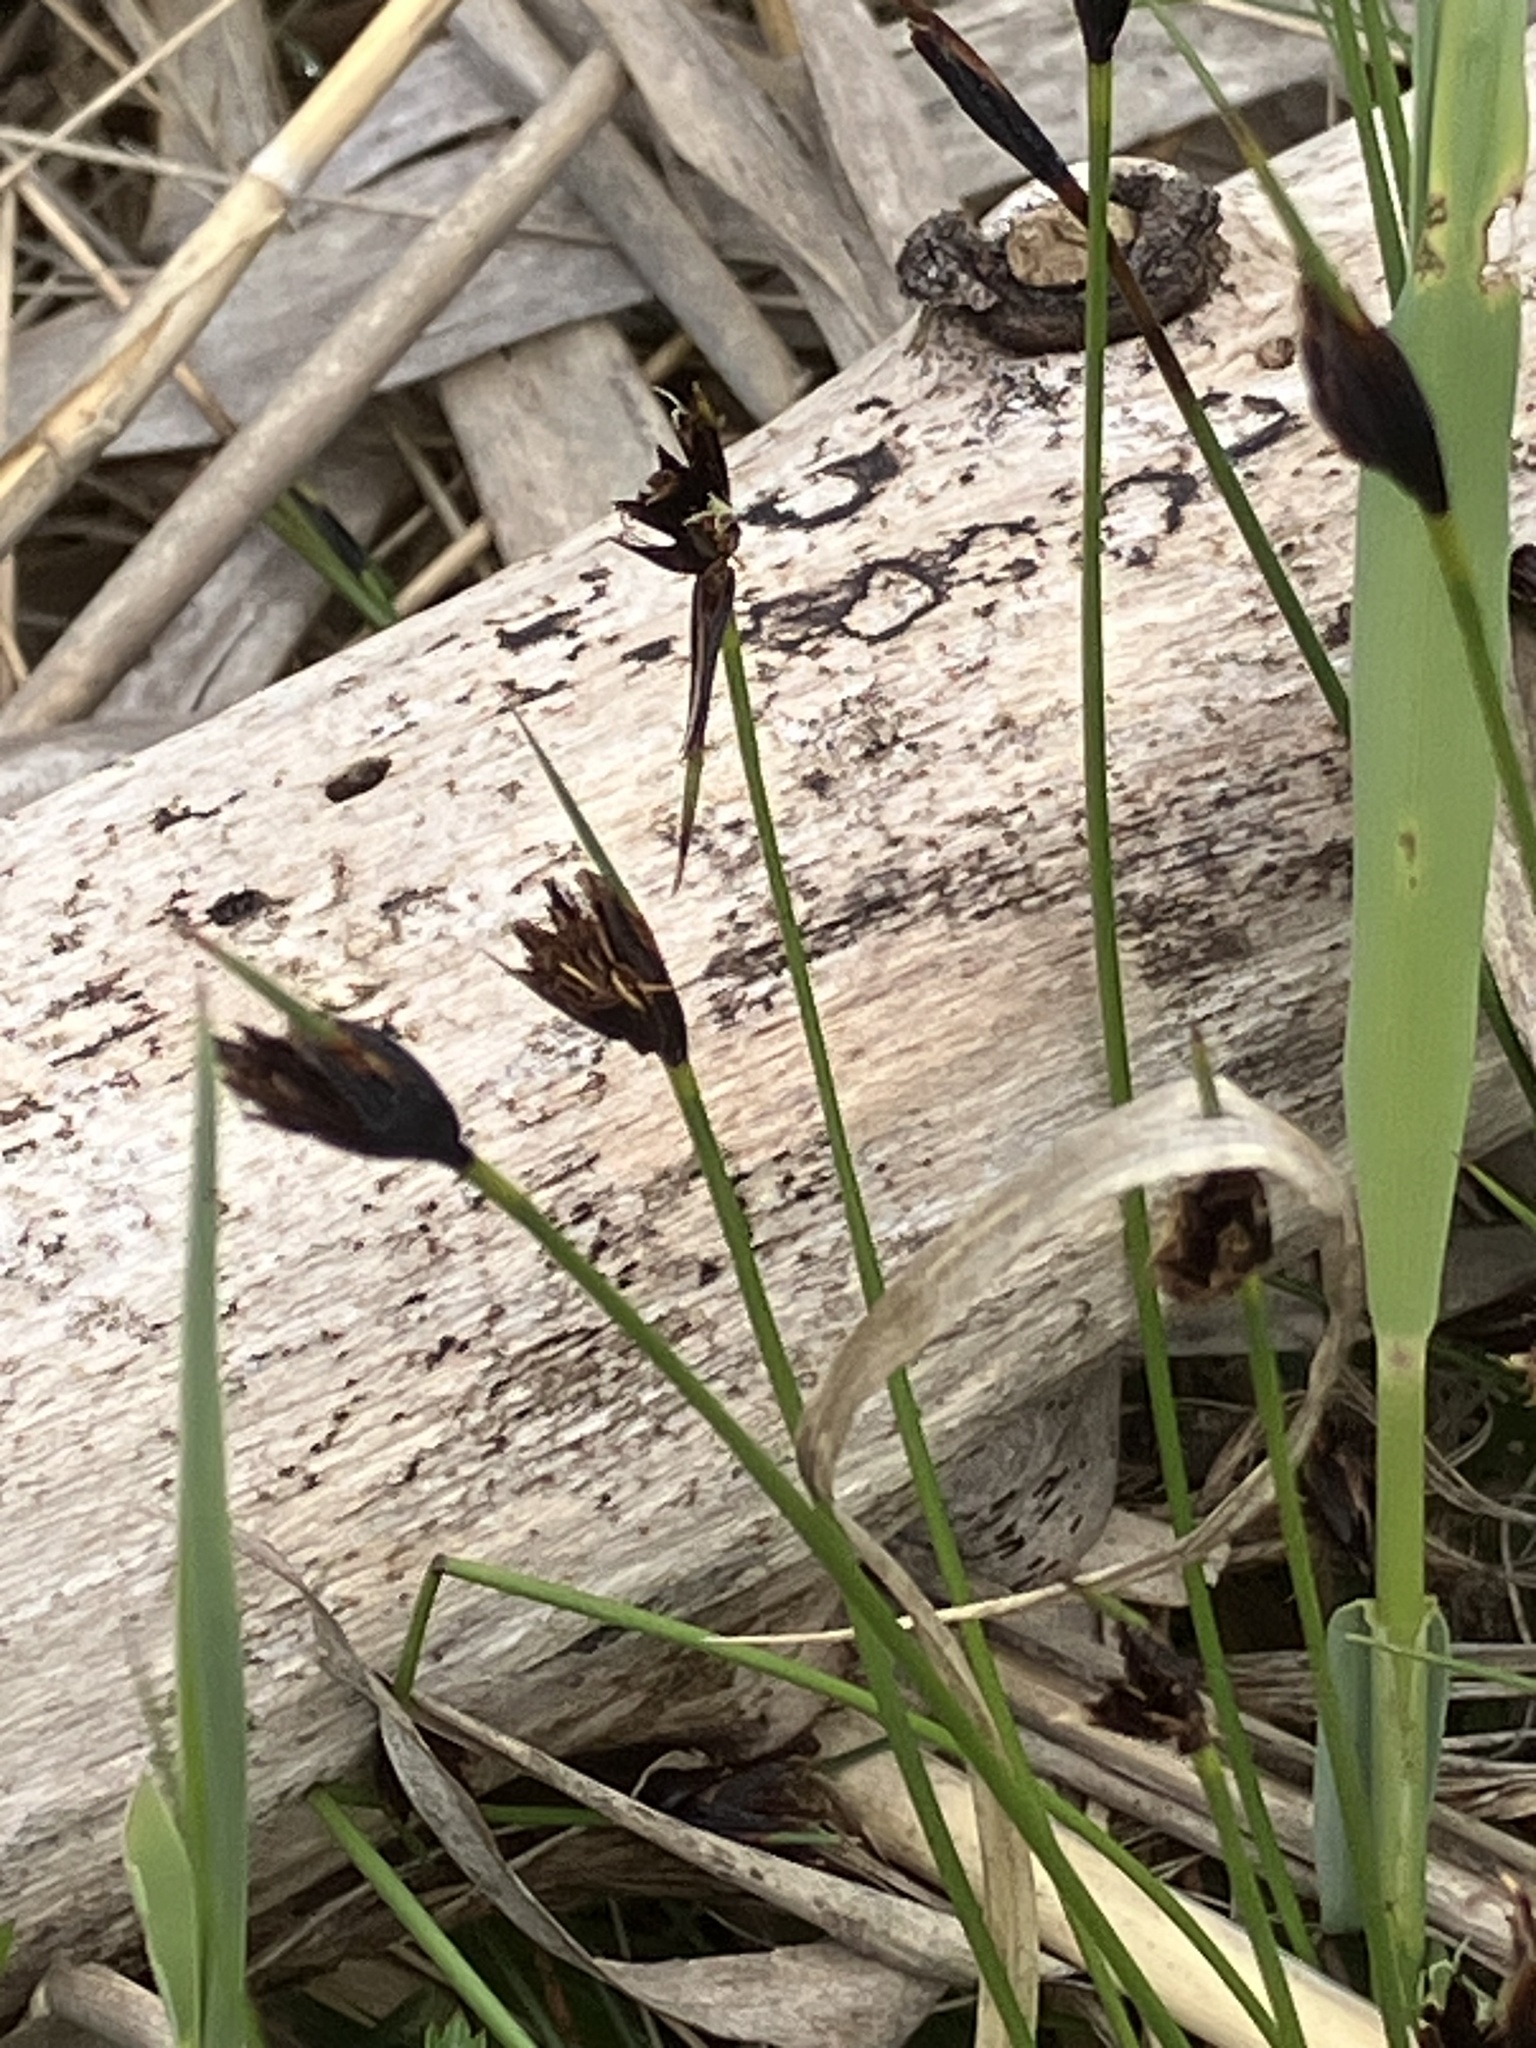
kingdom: Plantae
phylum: Tracheophyta
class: Liliopsida
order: Poales
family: Cyperaceae
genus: Schoenus
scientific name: Schoenus nigricans
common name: Black bog-rush
